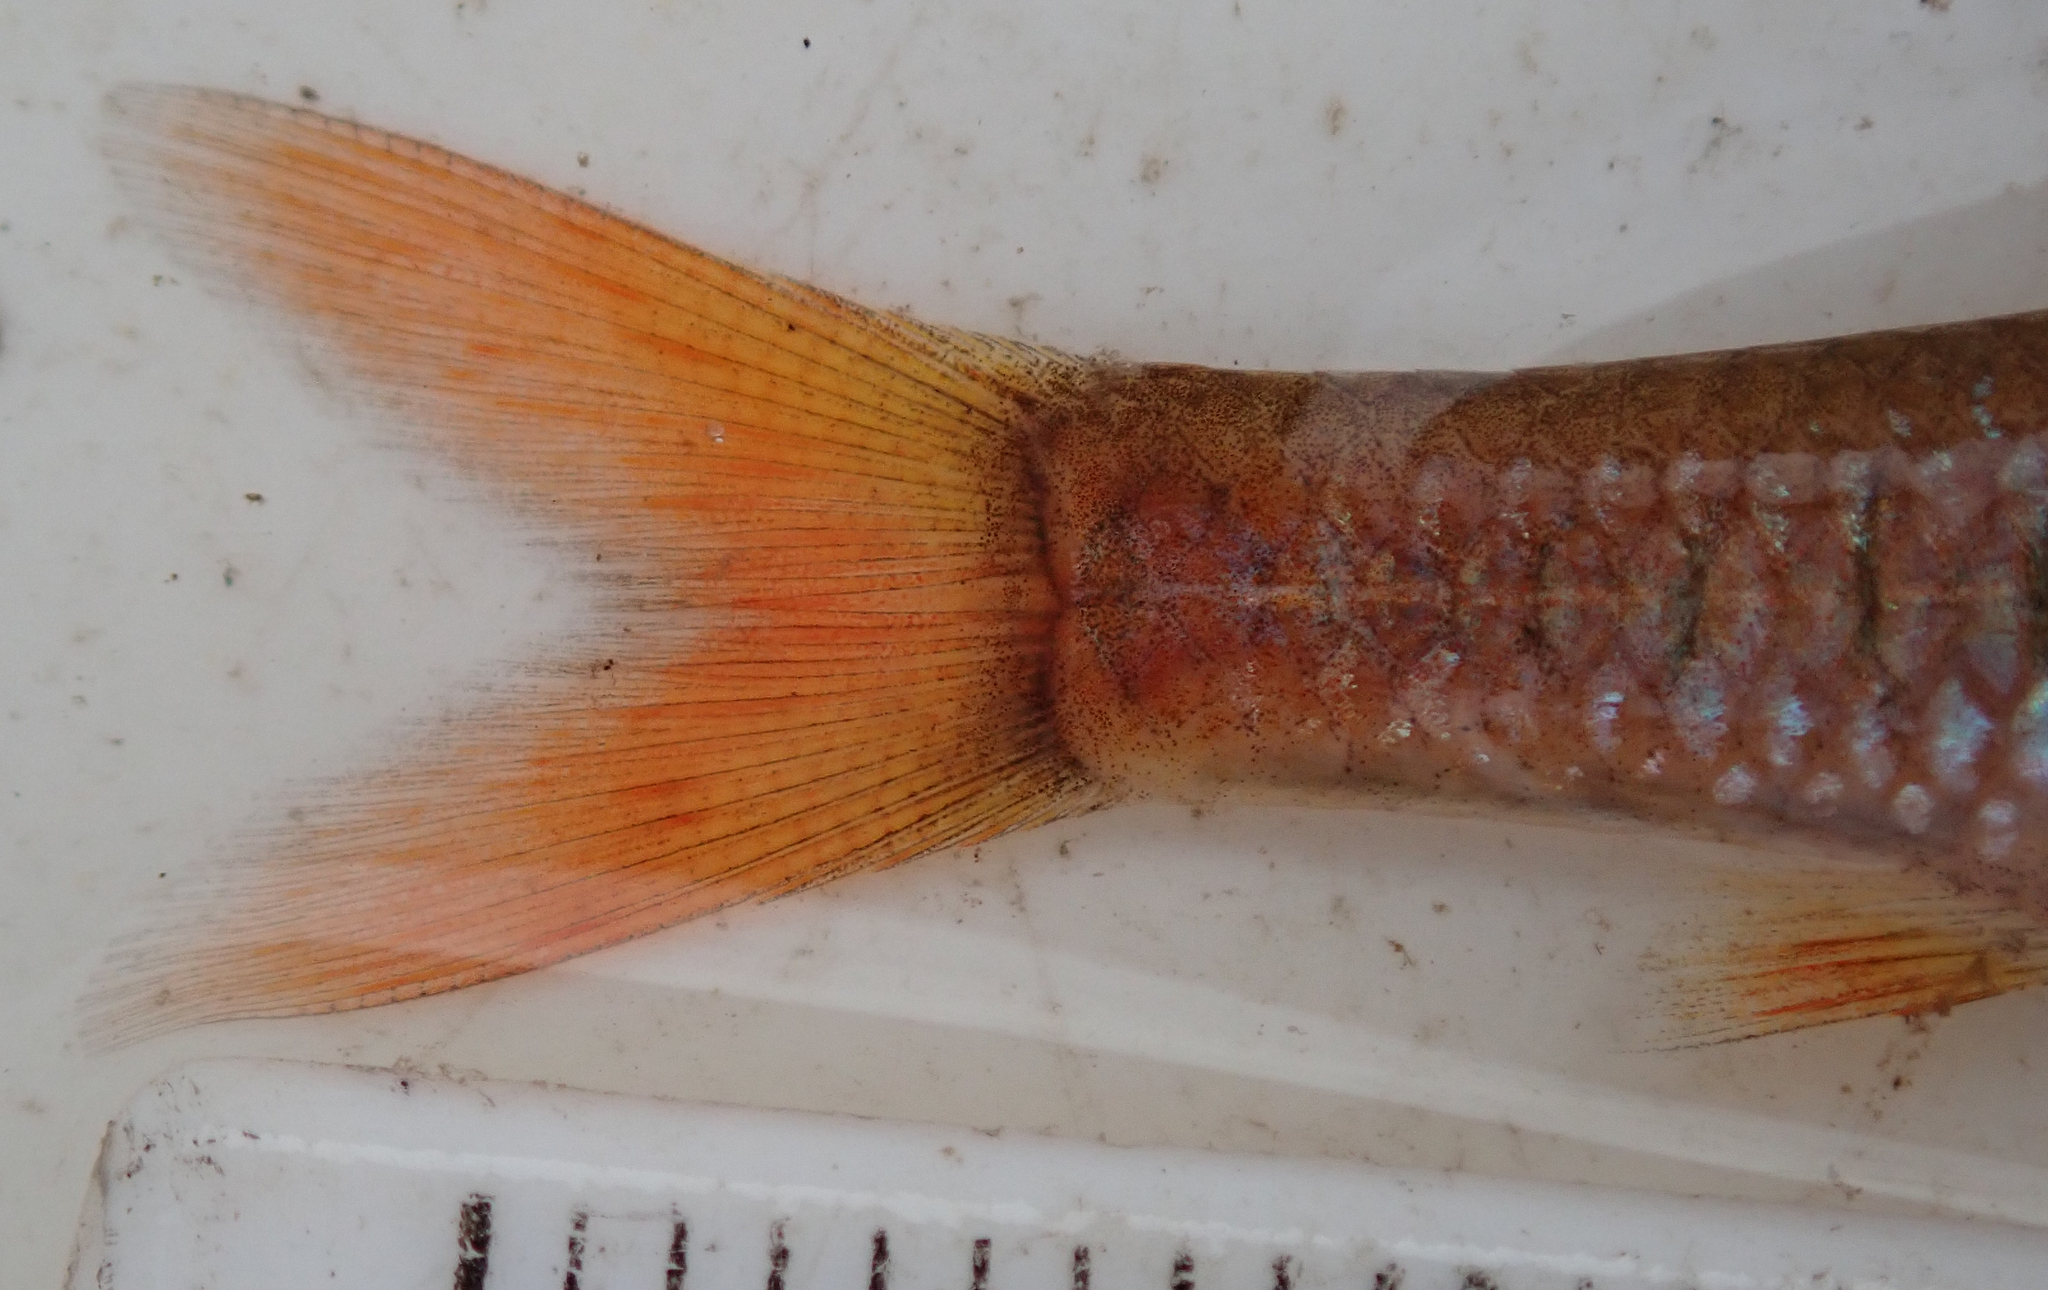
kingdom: Animalia
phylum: Chordata
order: Cypriniformes
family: Cyprinidae
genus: Enteromius
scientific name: Enteromius fasciolatus
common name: Red barb
